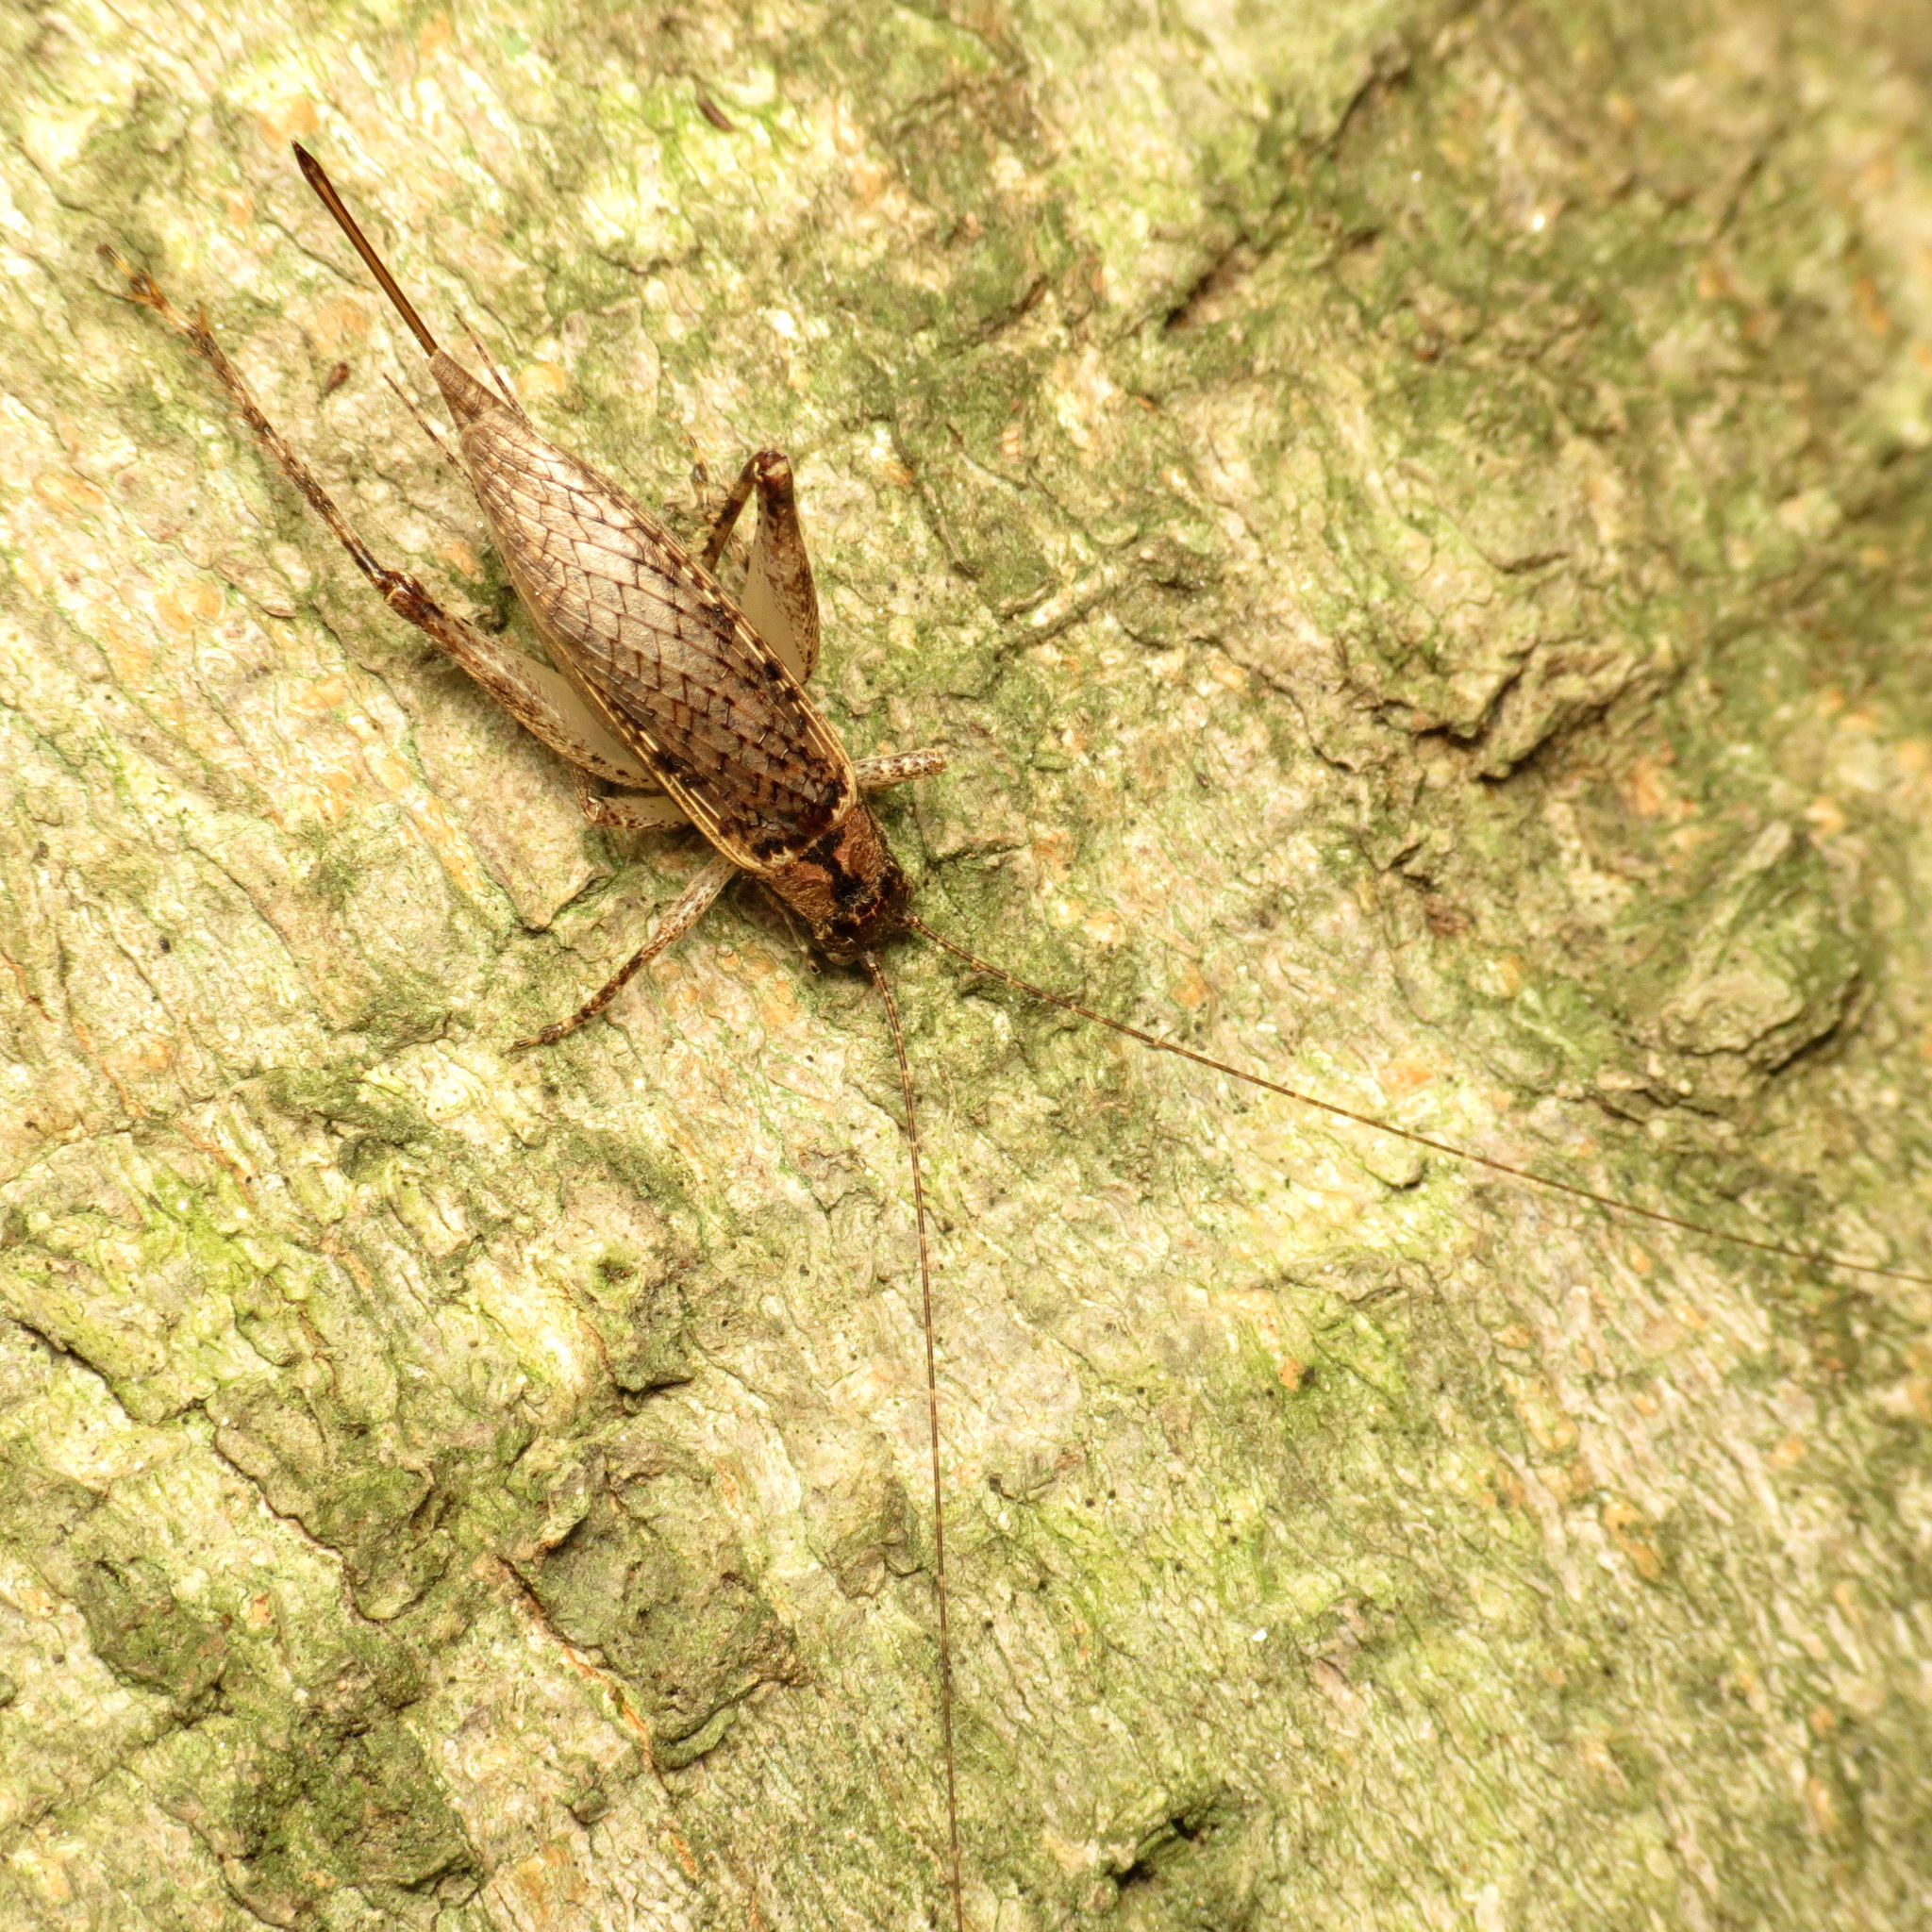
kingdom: Animalia
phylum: Arthropoda
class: Insecta
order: Orthoptera
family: Gryllidae
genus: Hapithus
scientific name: Hapithus saltator
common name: Jumping bush cricket
